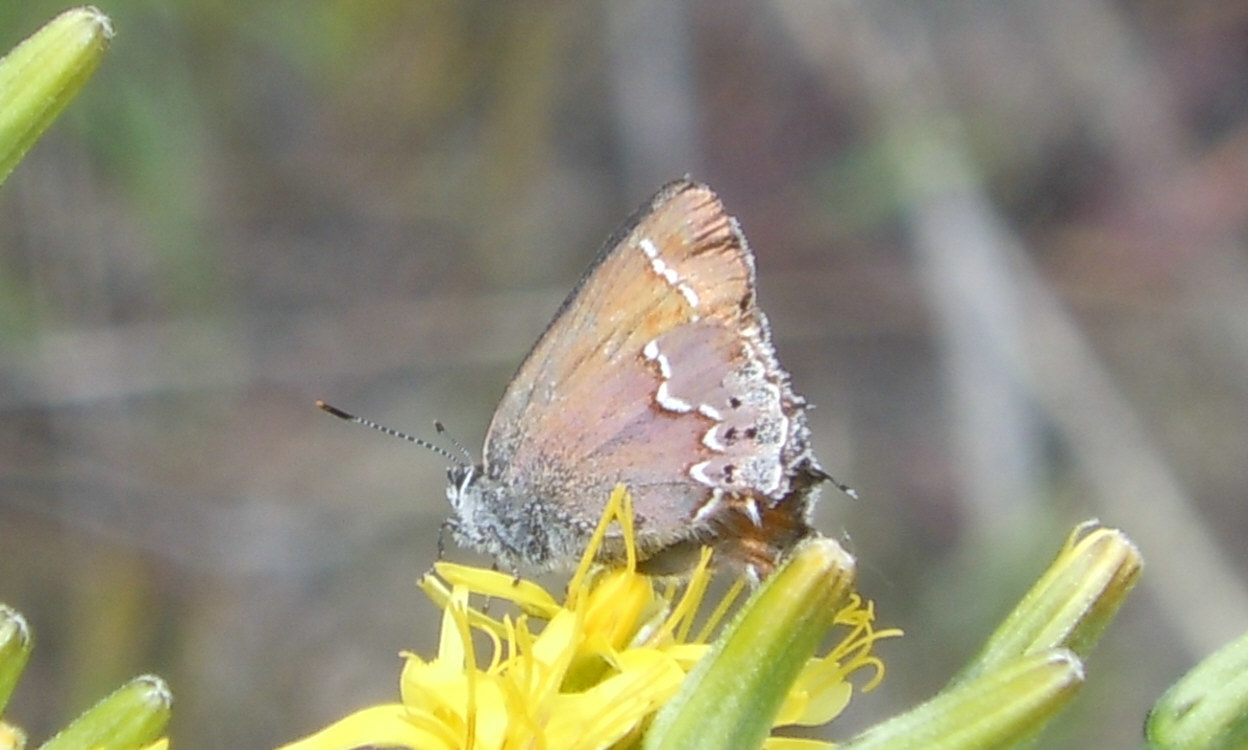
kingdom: Animalia
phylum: Arthropoda
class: Insecta
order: Lepidoptera
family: Lycaenidae
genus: Mitoura
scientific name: Mitoura gryneus
